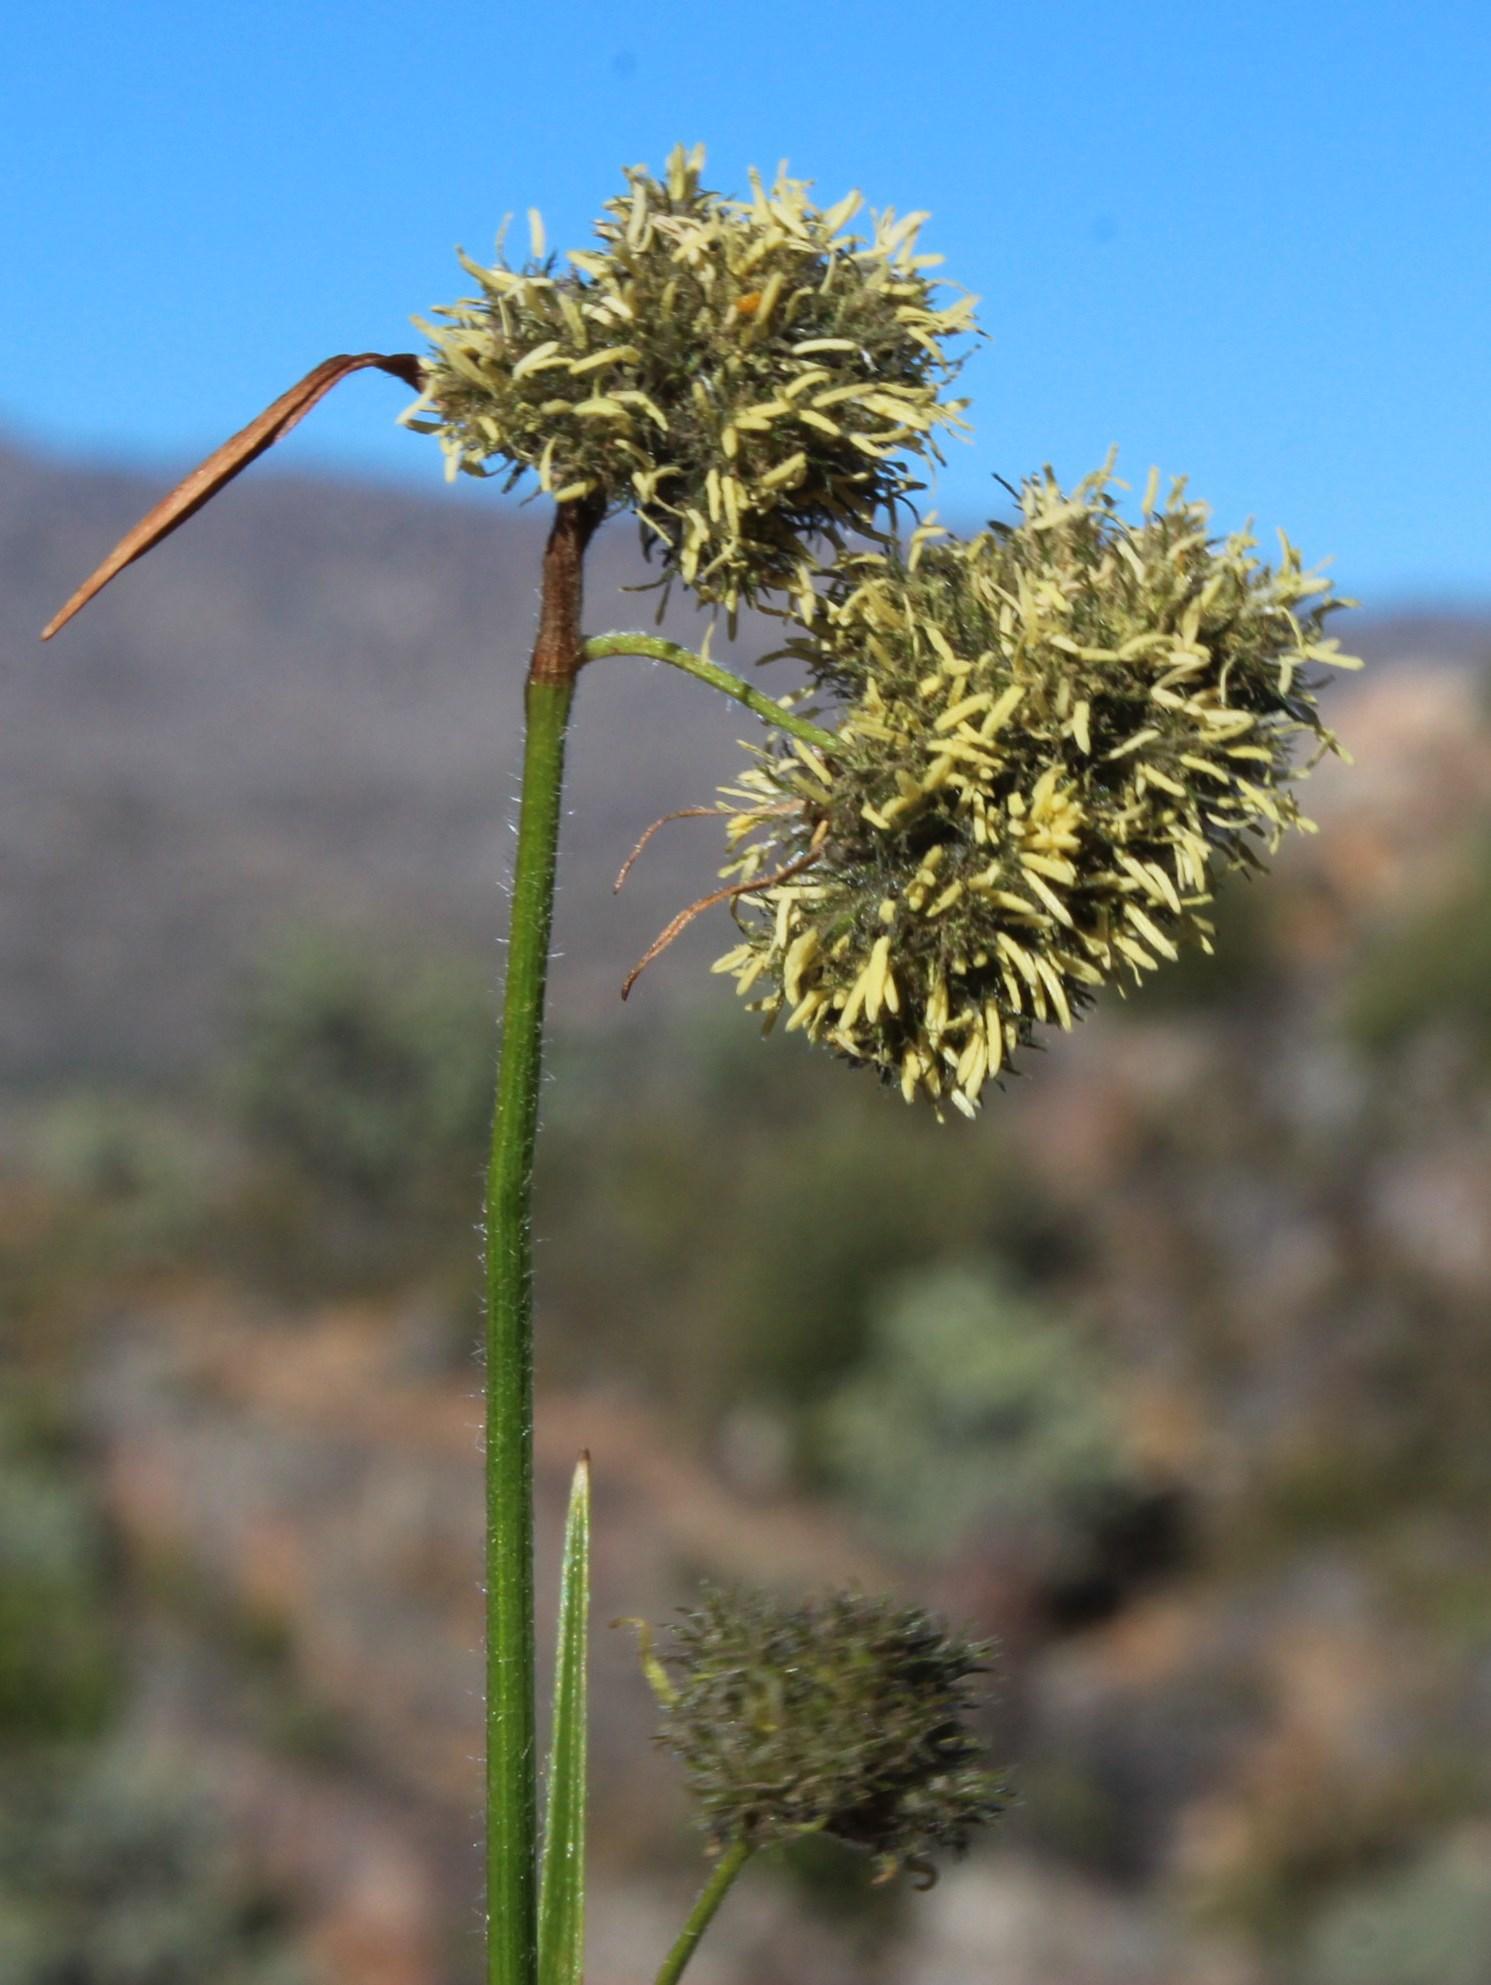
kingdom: Plantae
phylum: Tracheophyta
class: Liliopsida
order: Poales
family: Cyperaceae
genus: Fuirena
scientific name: Fuirena hirsuta
